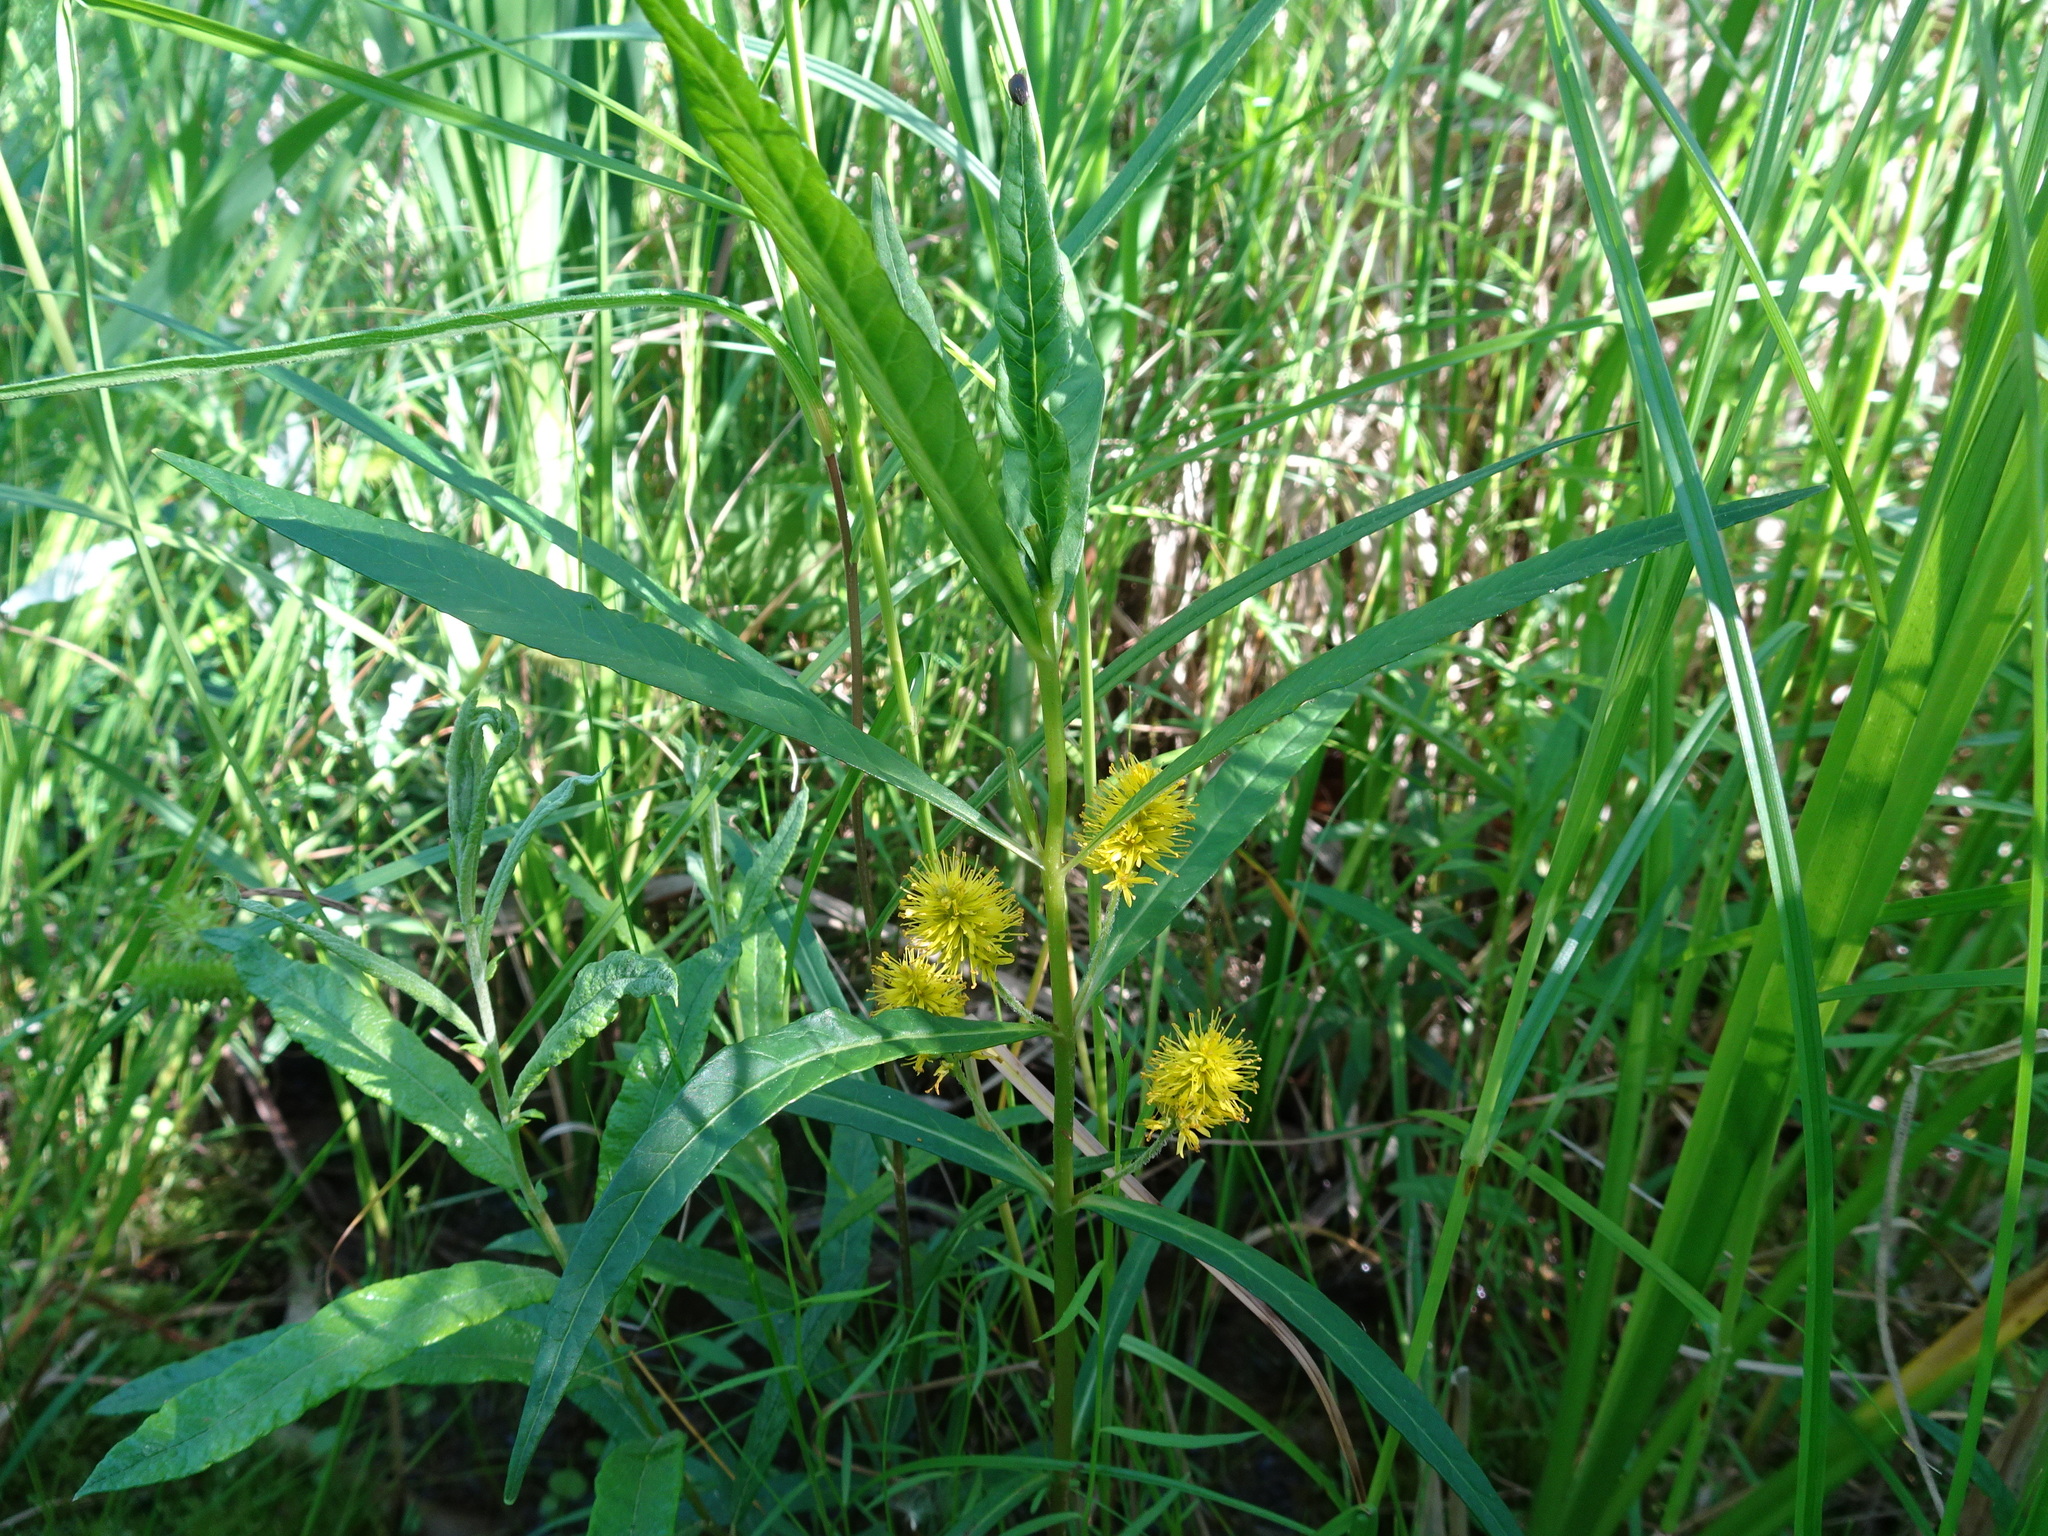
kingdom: Plantae
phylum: Tracheophyta
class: Magnoliopsida
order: Ericales
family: Primulaceae
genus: Lysimachia
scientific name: Lysimachia thyrsiflora
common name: Tufted loosestrife
